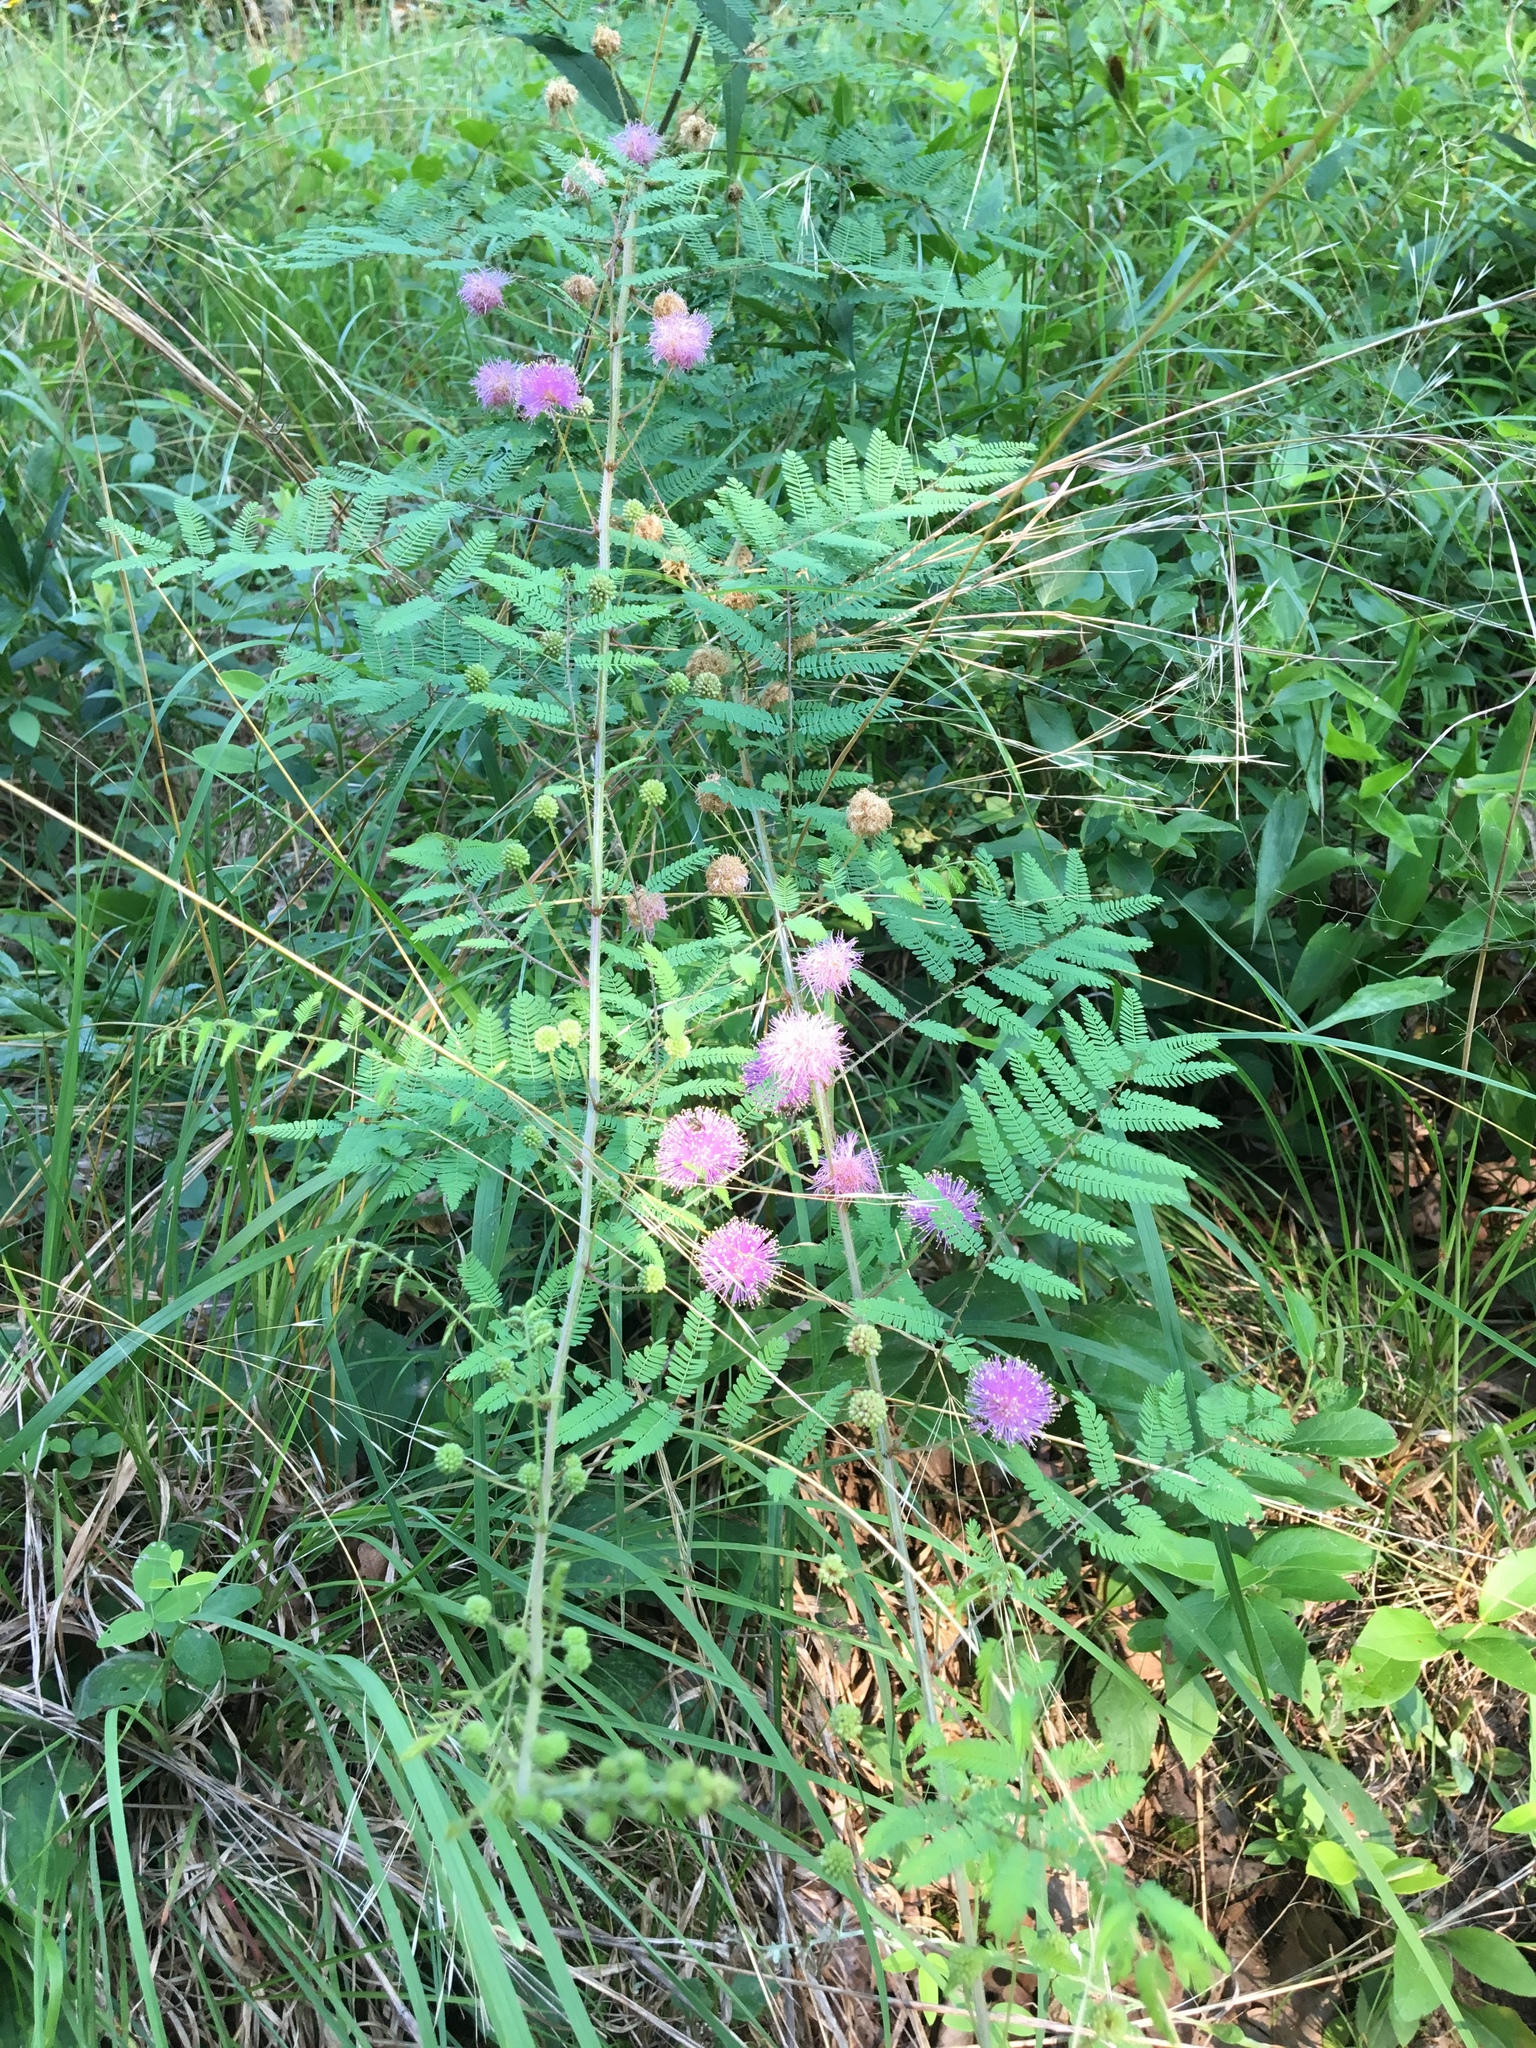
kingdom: Plantae
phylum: Tracheophyta
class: Magnoliopsida
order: Fabales
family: Fabaceae
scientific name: Fabaceae
